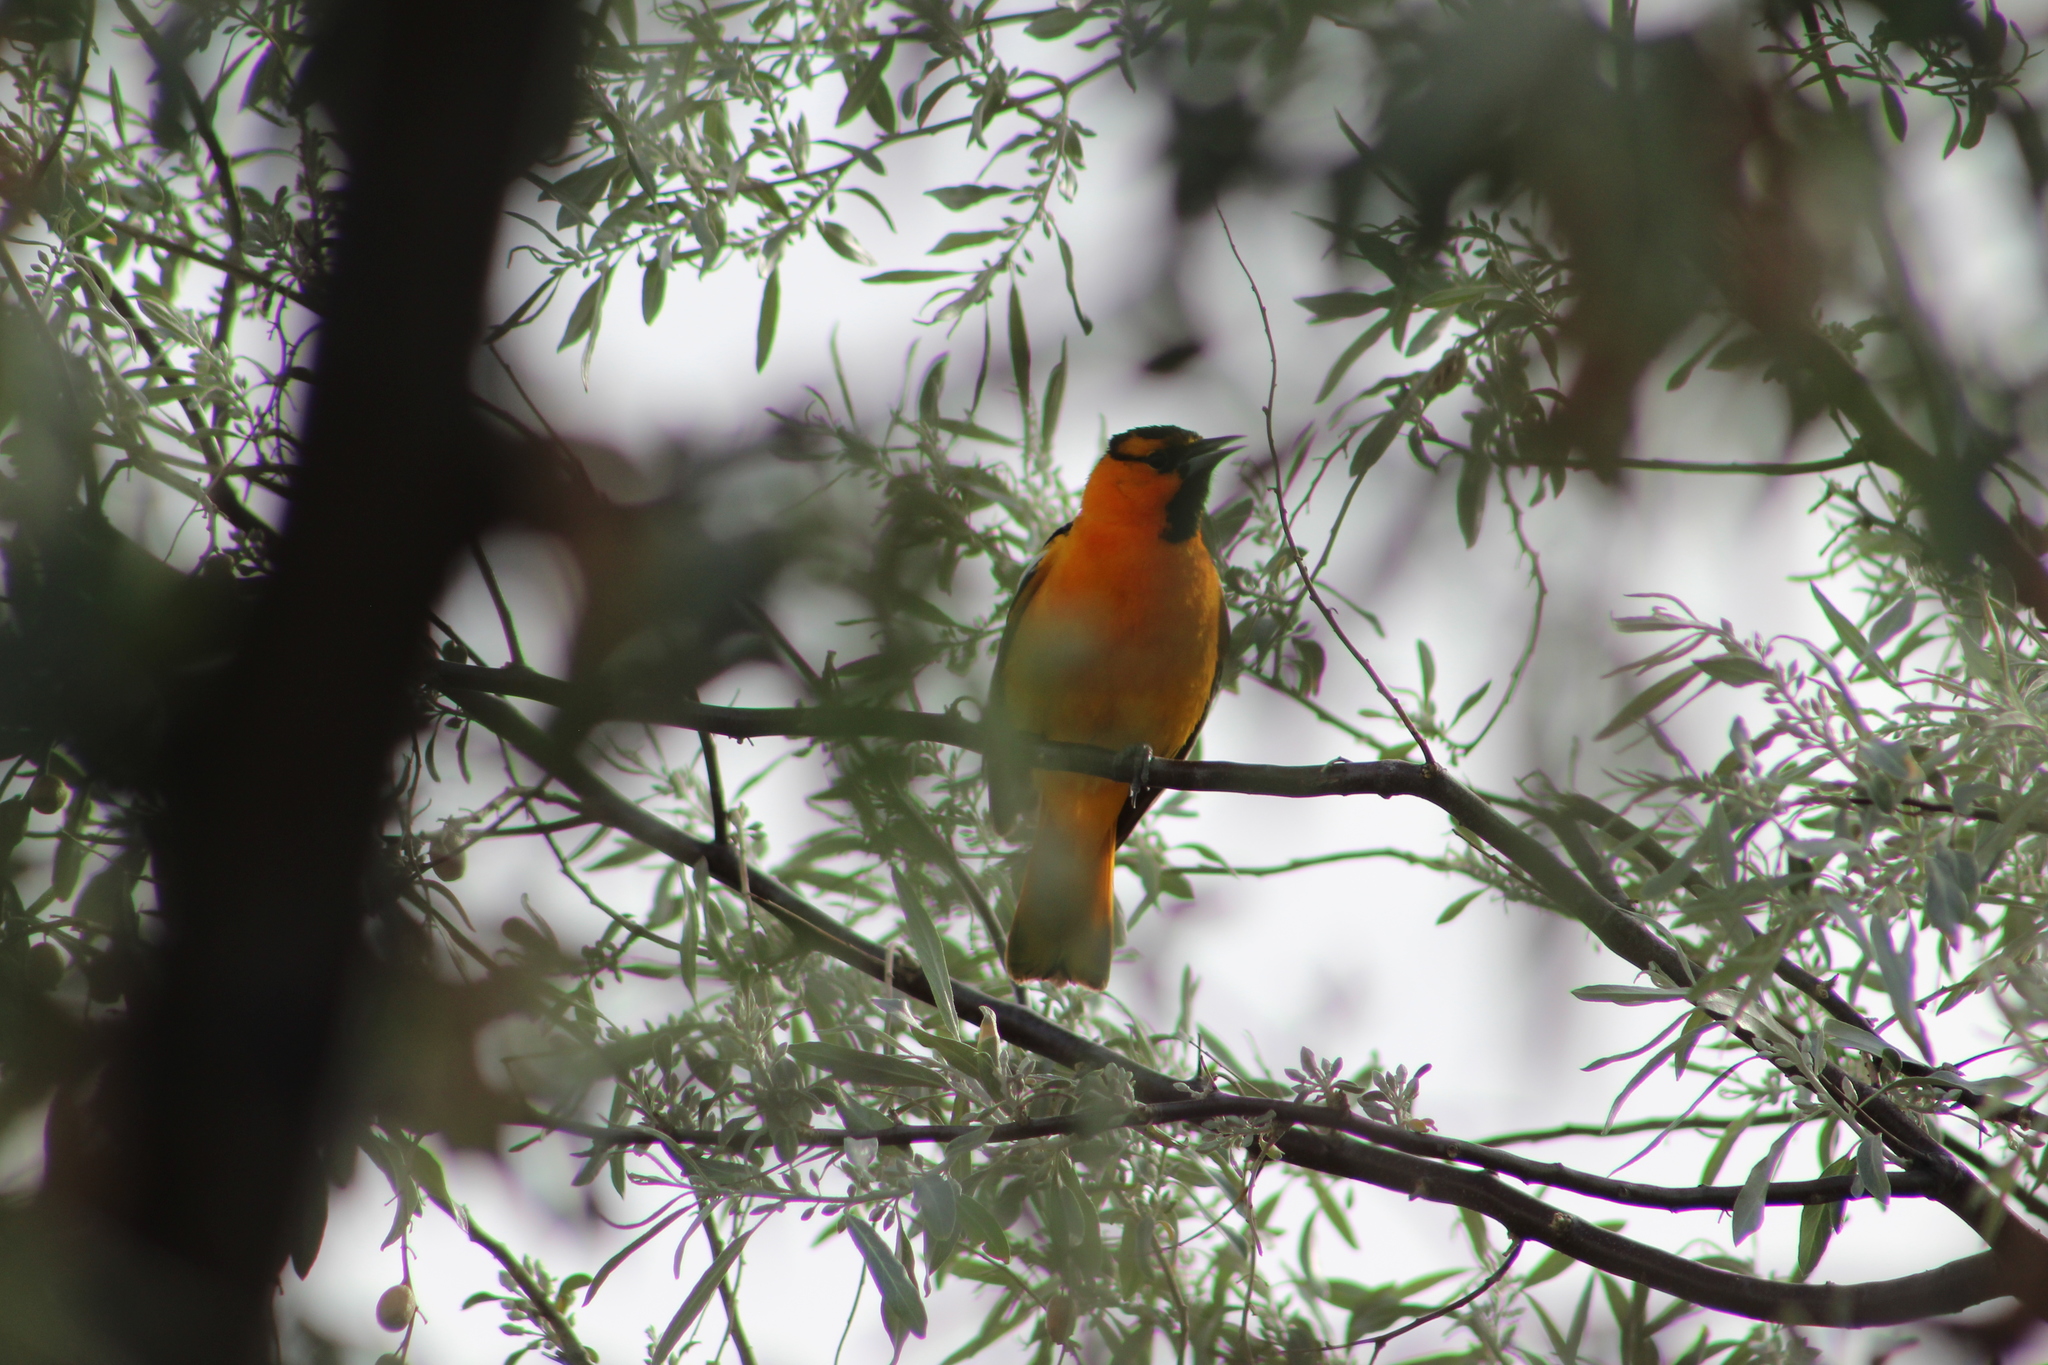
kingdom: Animalia
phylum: Chordata
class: Aves
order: Passeriformes
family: Icteridae
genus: Icterus
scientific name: Icterus bullockii
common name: Bullock's oriole
